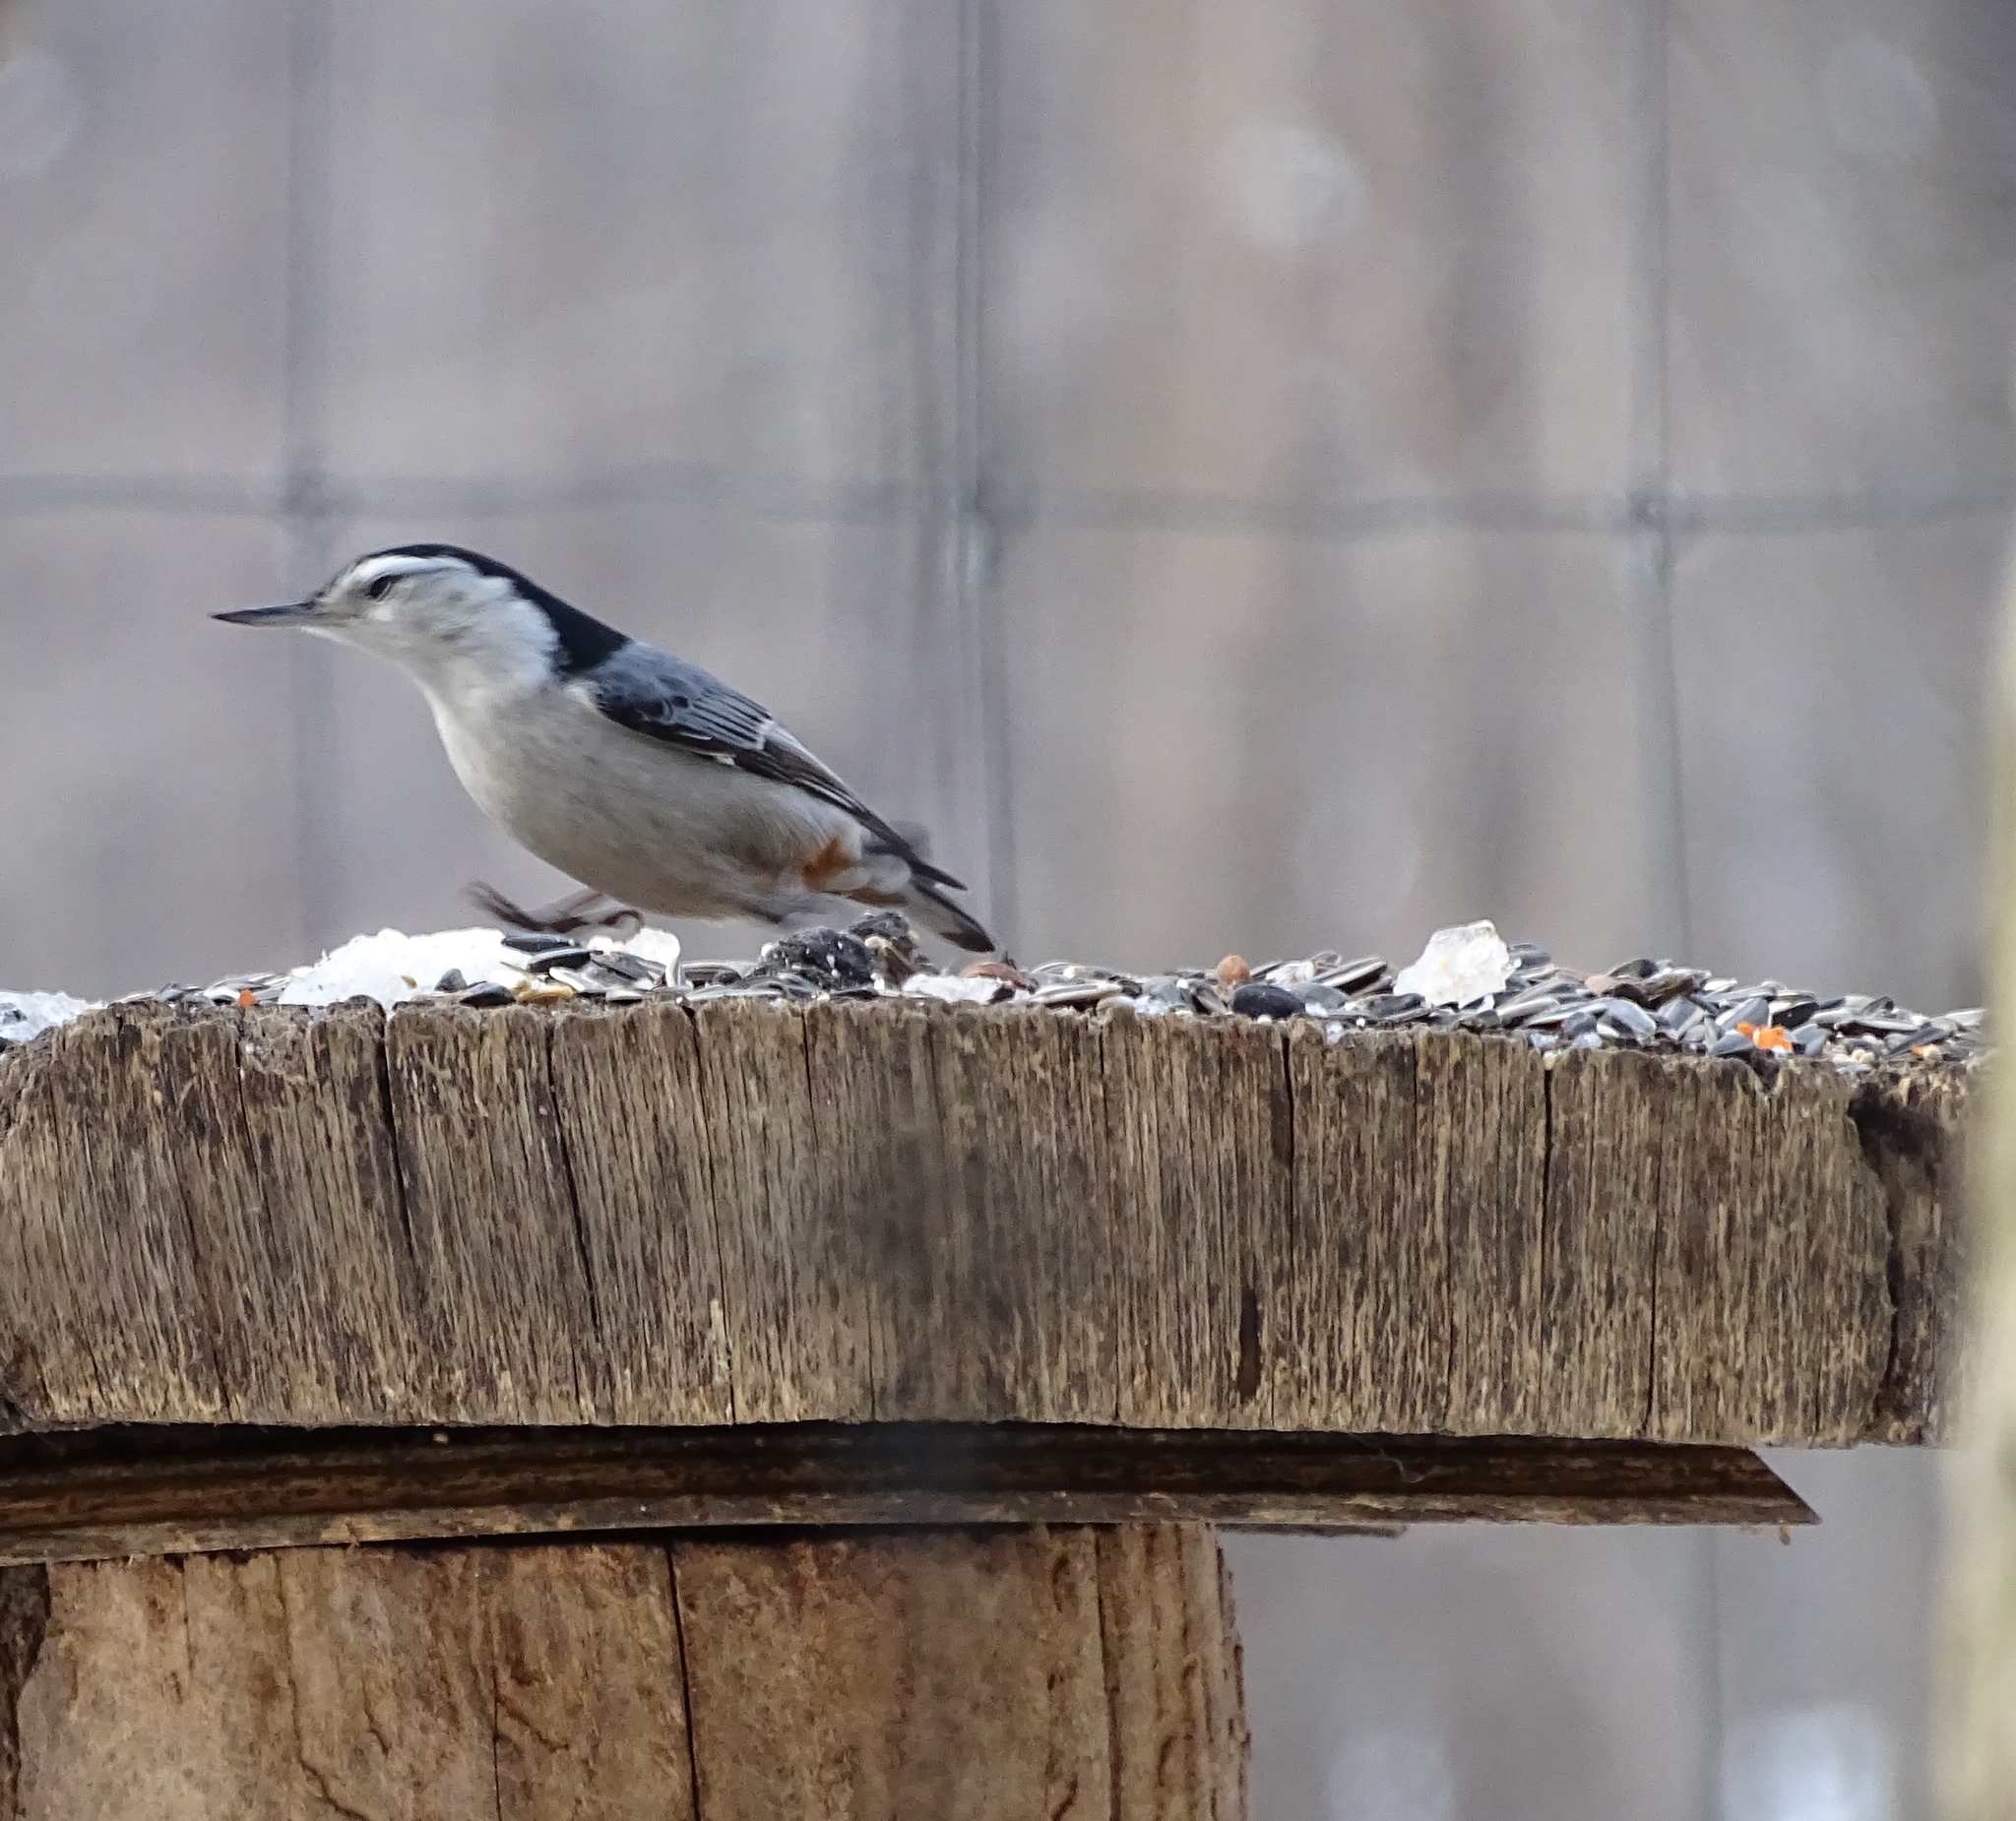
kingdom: Animalia
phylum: Chordata
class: Aves
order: Passeriformes
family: Sittidae
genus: Sitta
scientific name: Sitta carolinensis
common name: White-breasted nuthatch
